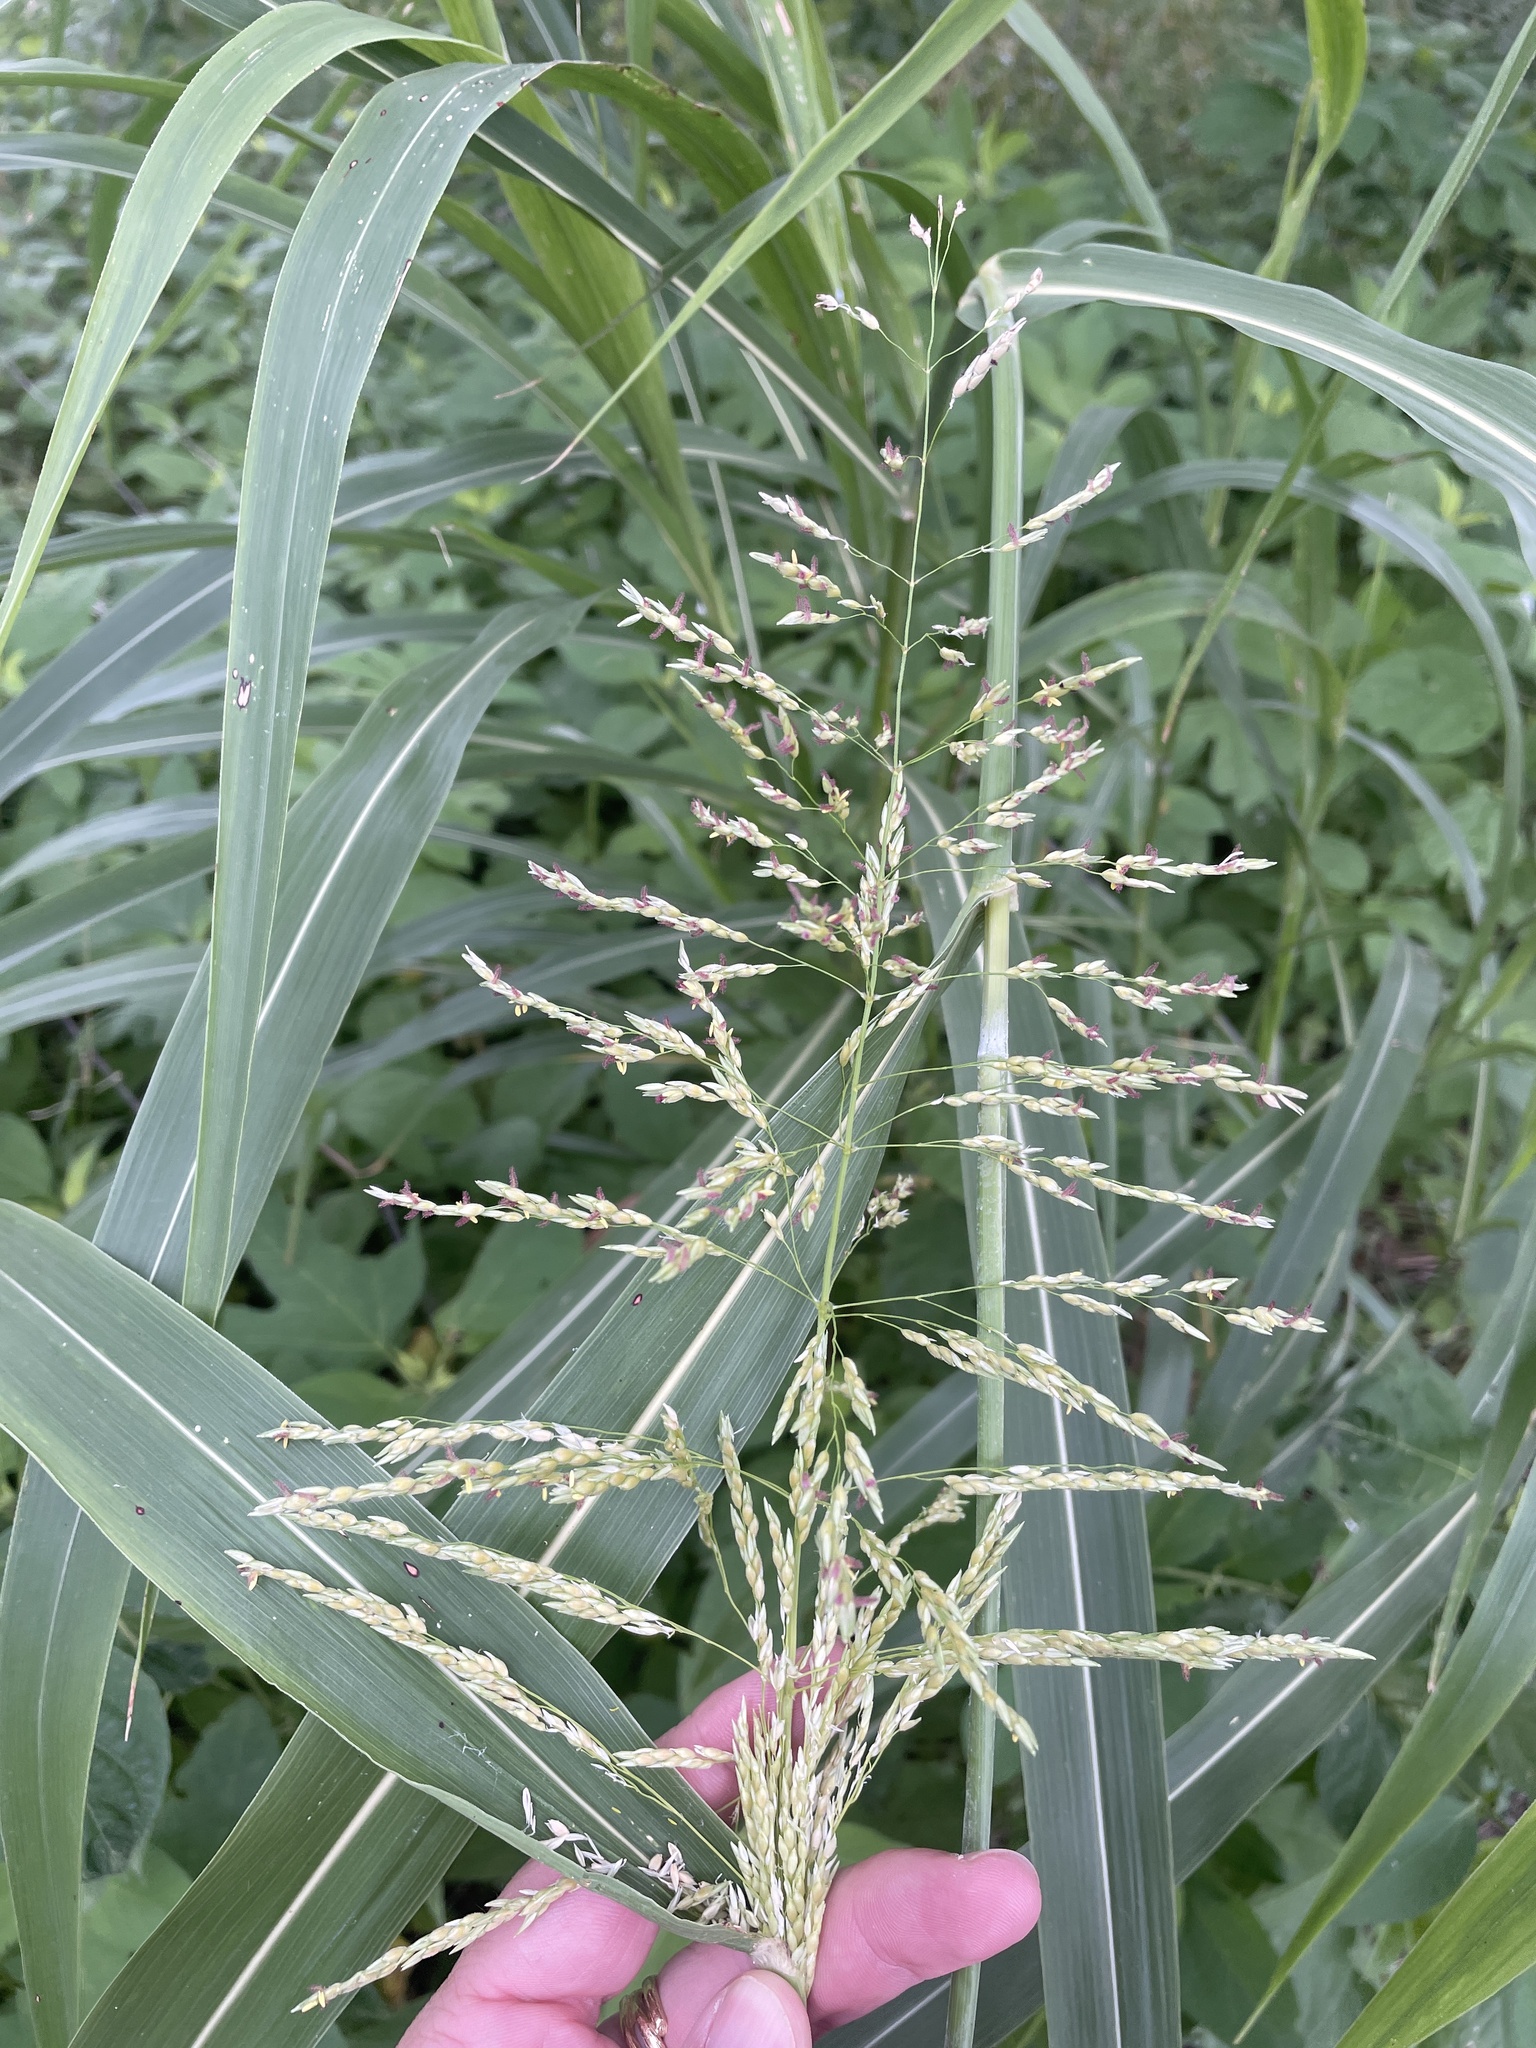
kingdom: Plantae
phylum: Tracheophyta
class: Liliopsida
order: Poales
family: Poaceae
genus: Sorghum
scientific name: Sorghum halepense
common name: Johnson-grass
